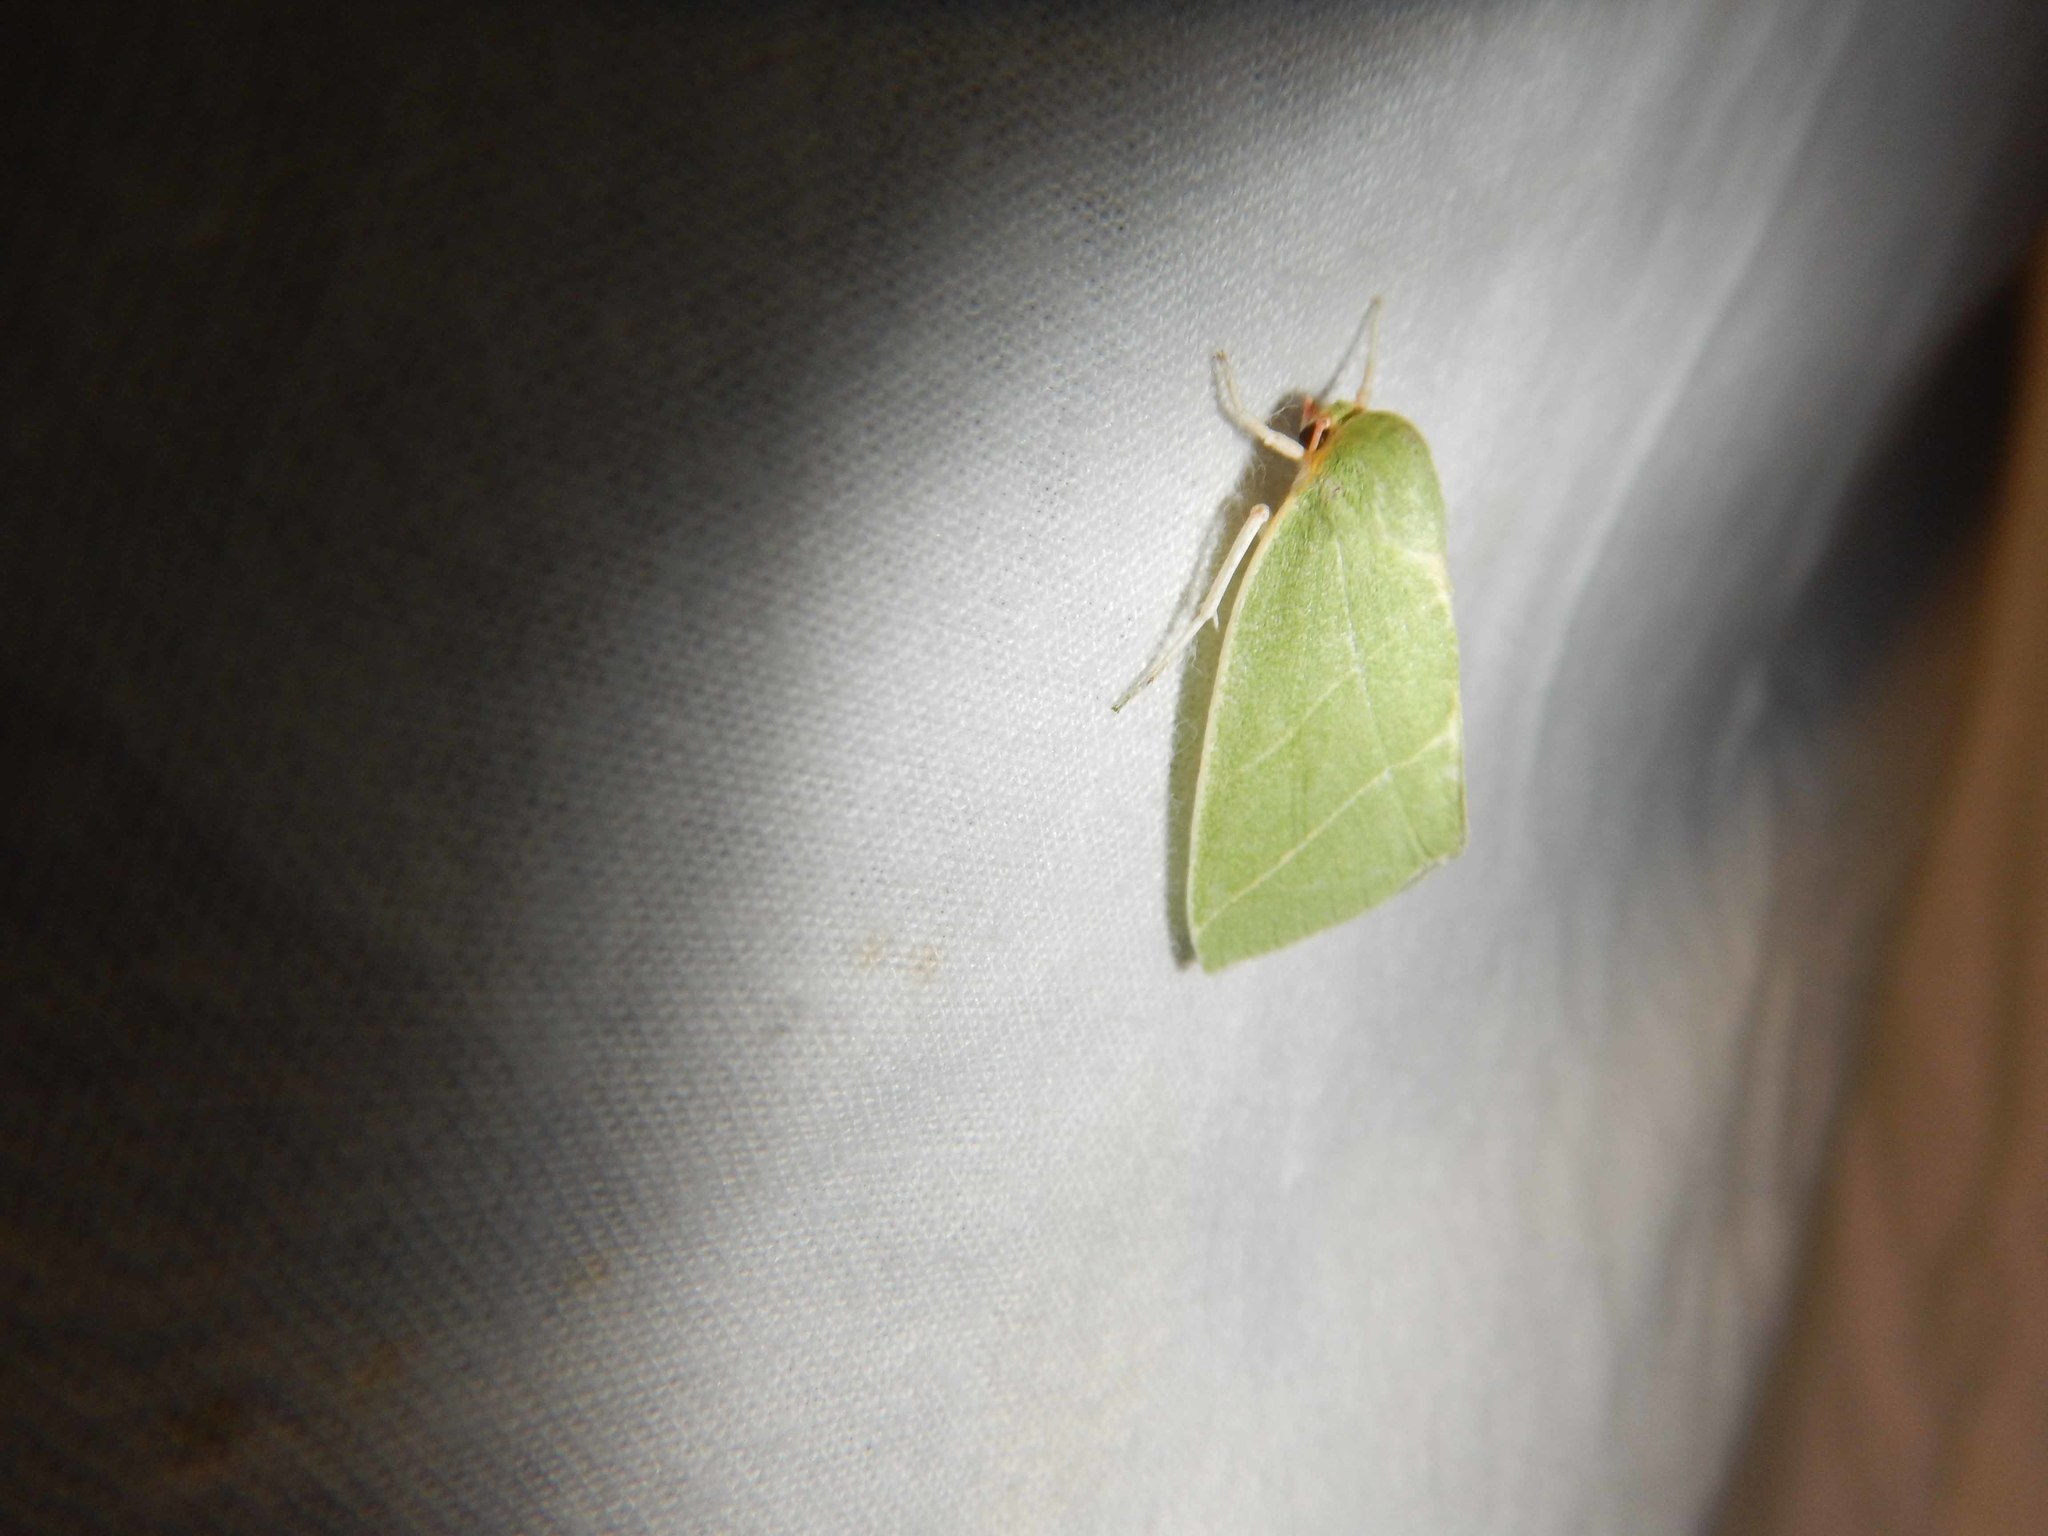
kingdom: Animalia
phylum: Arthropoda
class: Insecta
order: Lepidoptera
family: Nolidae
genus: Bena
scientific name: Bena bicolorana
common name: Scarce silver-lines
